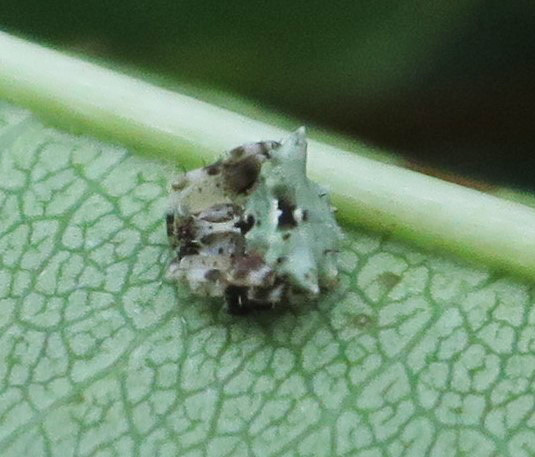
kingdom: Animalia
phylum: Arthropoda
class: Arachnida
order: Araneae
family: Araneidae
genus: Celaenia
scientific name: Celaenia olivacea
